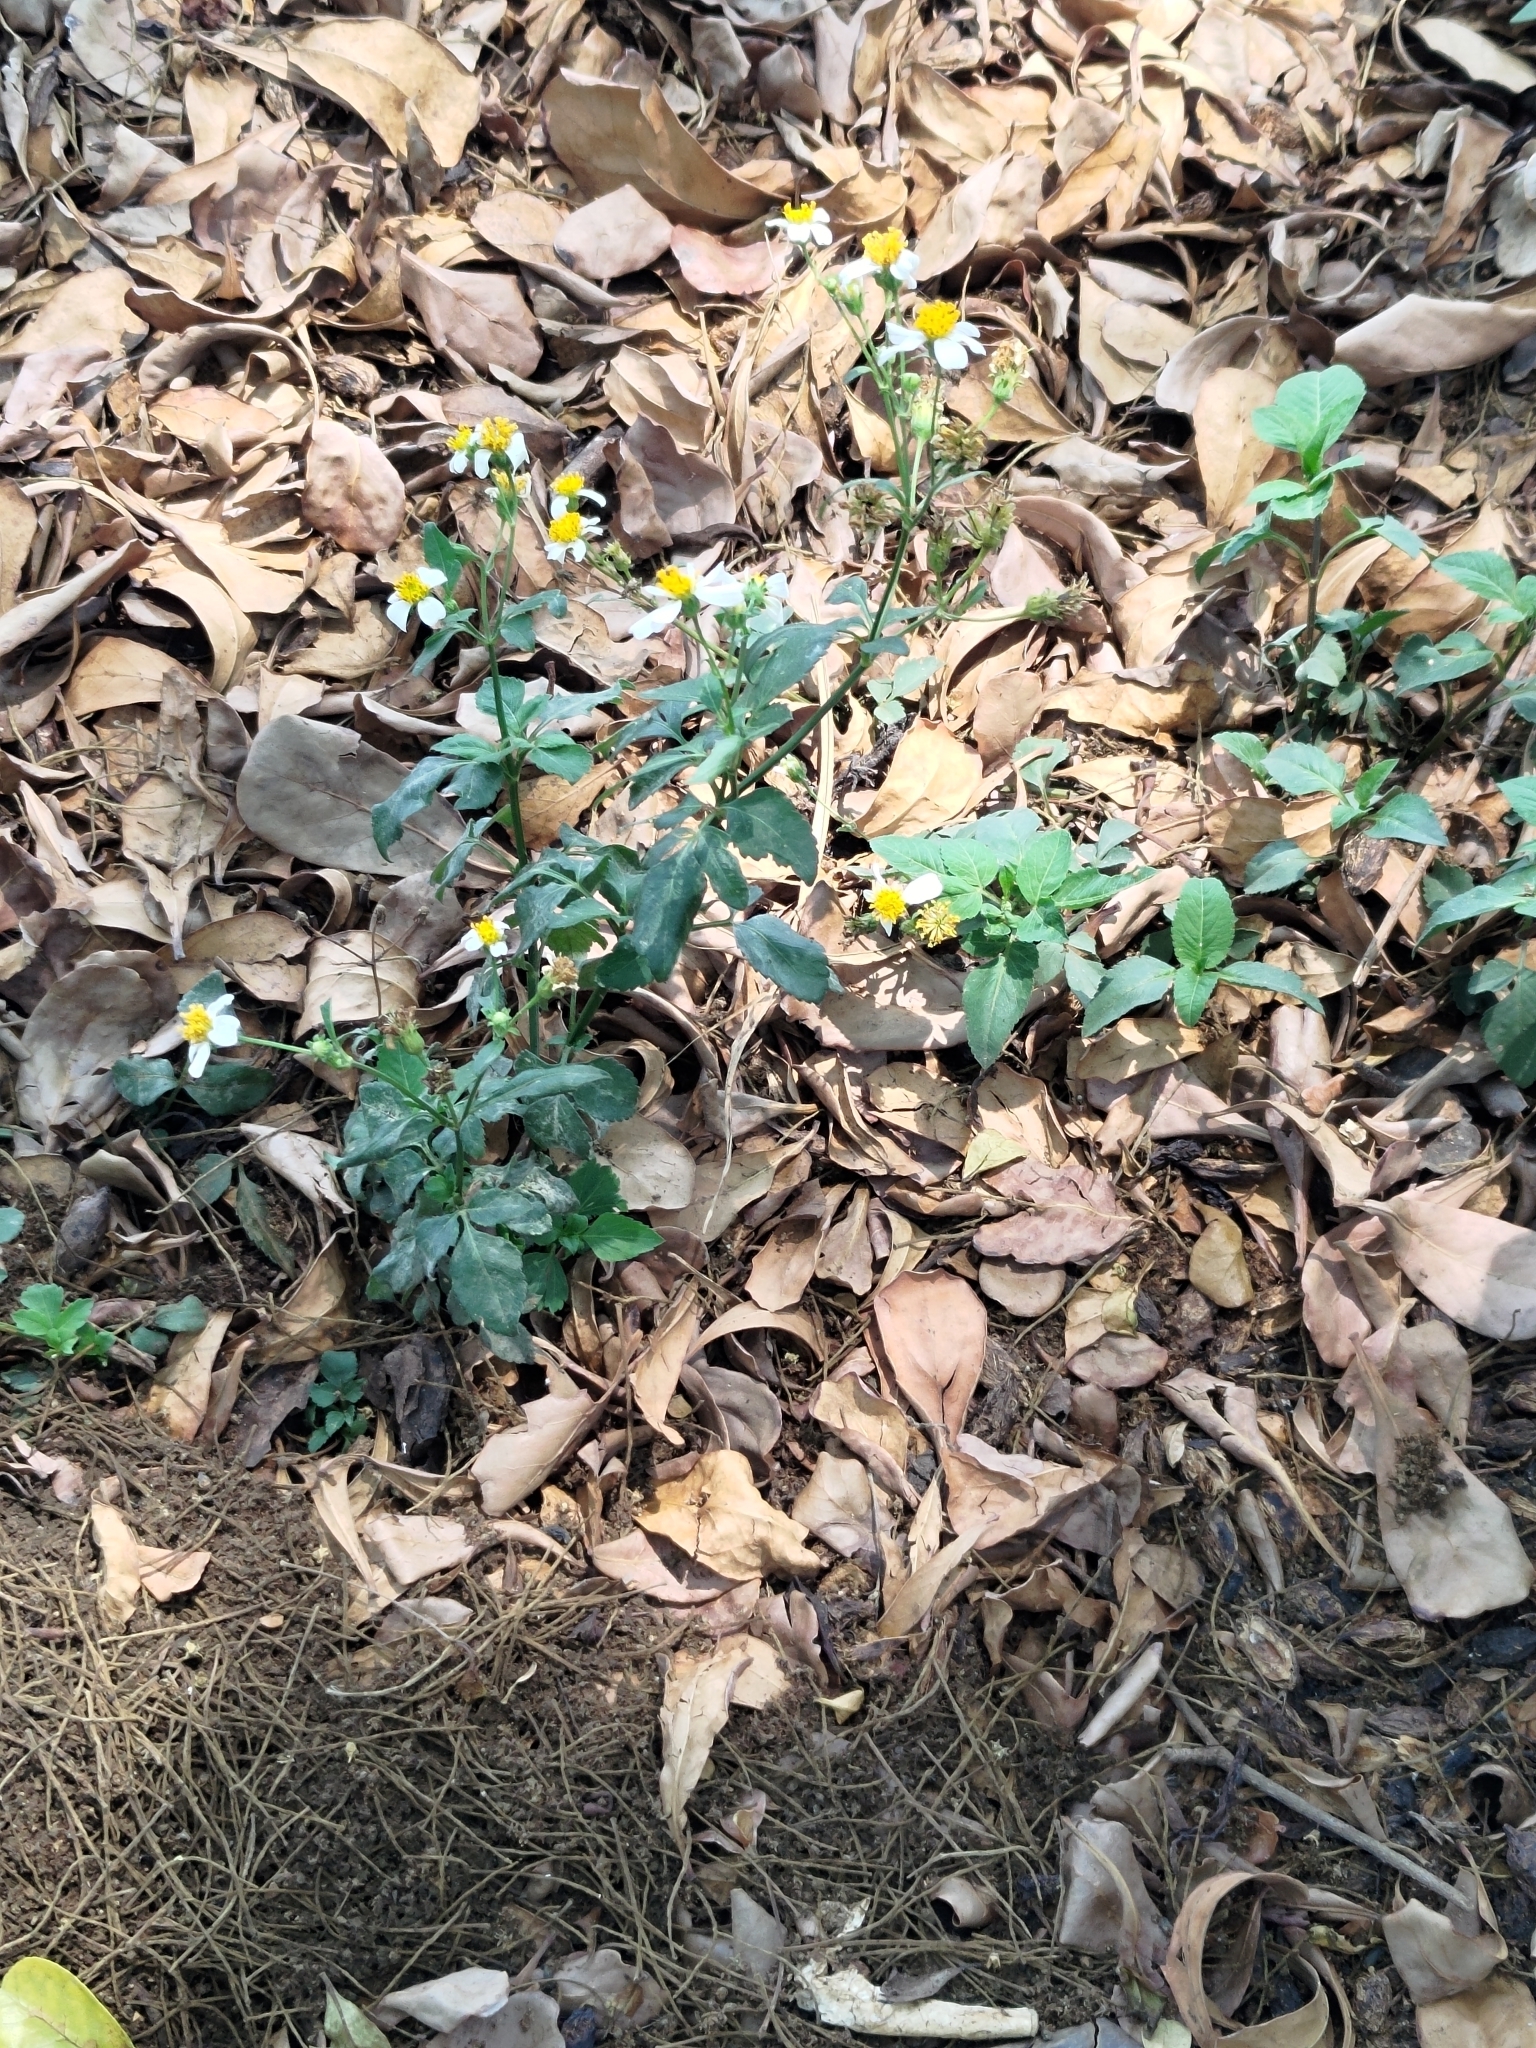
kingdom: Plantae
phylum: Tracheophyta
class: Magnoliopsida
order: Asterales
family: Asteraceae
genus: Bidens
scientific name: Bidens alba
